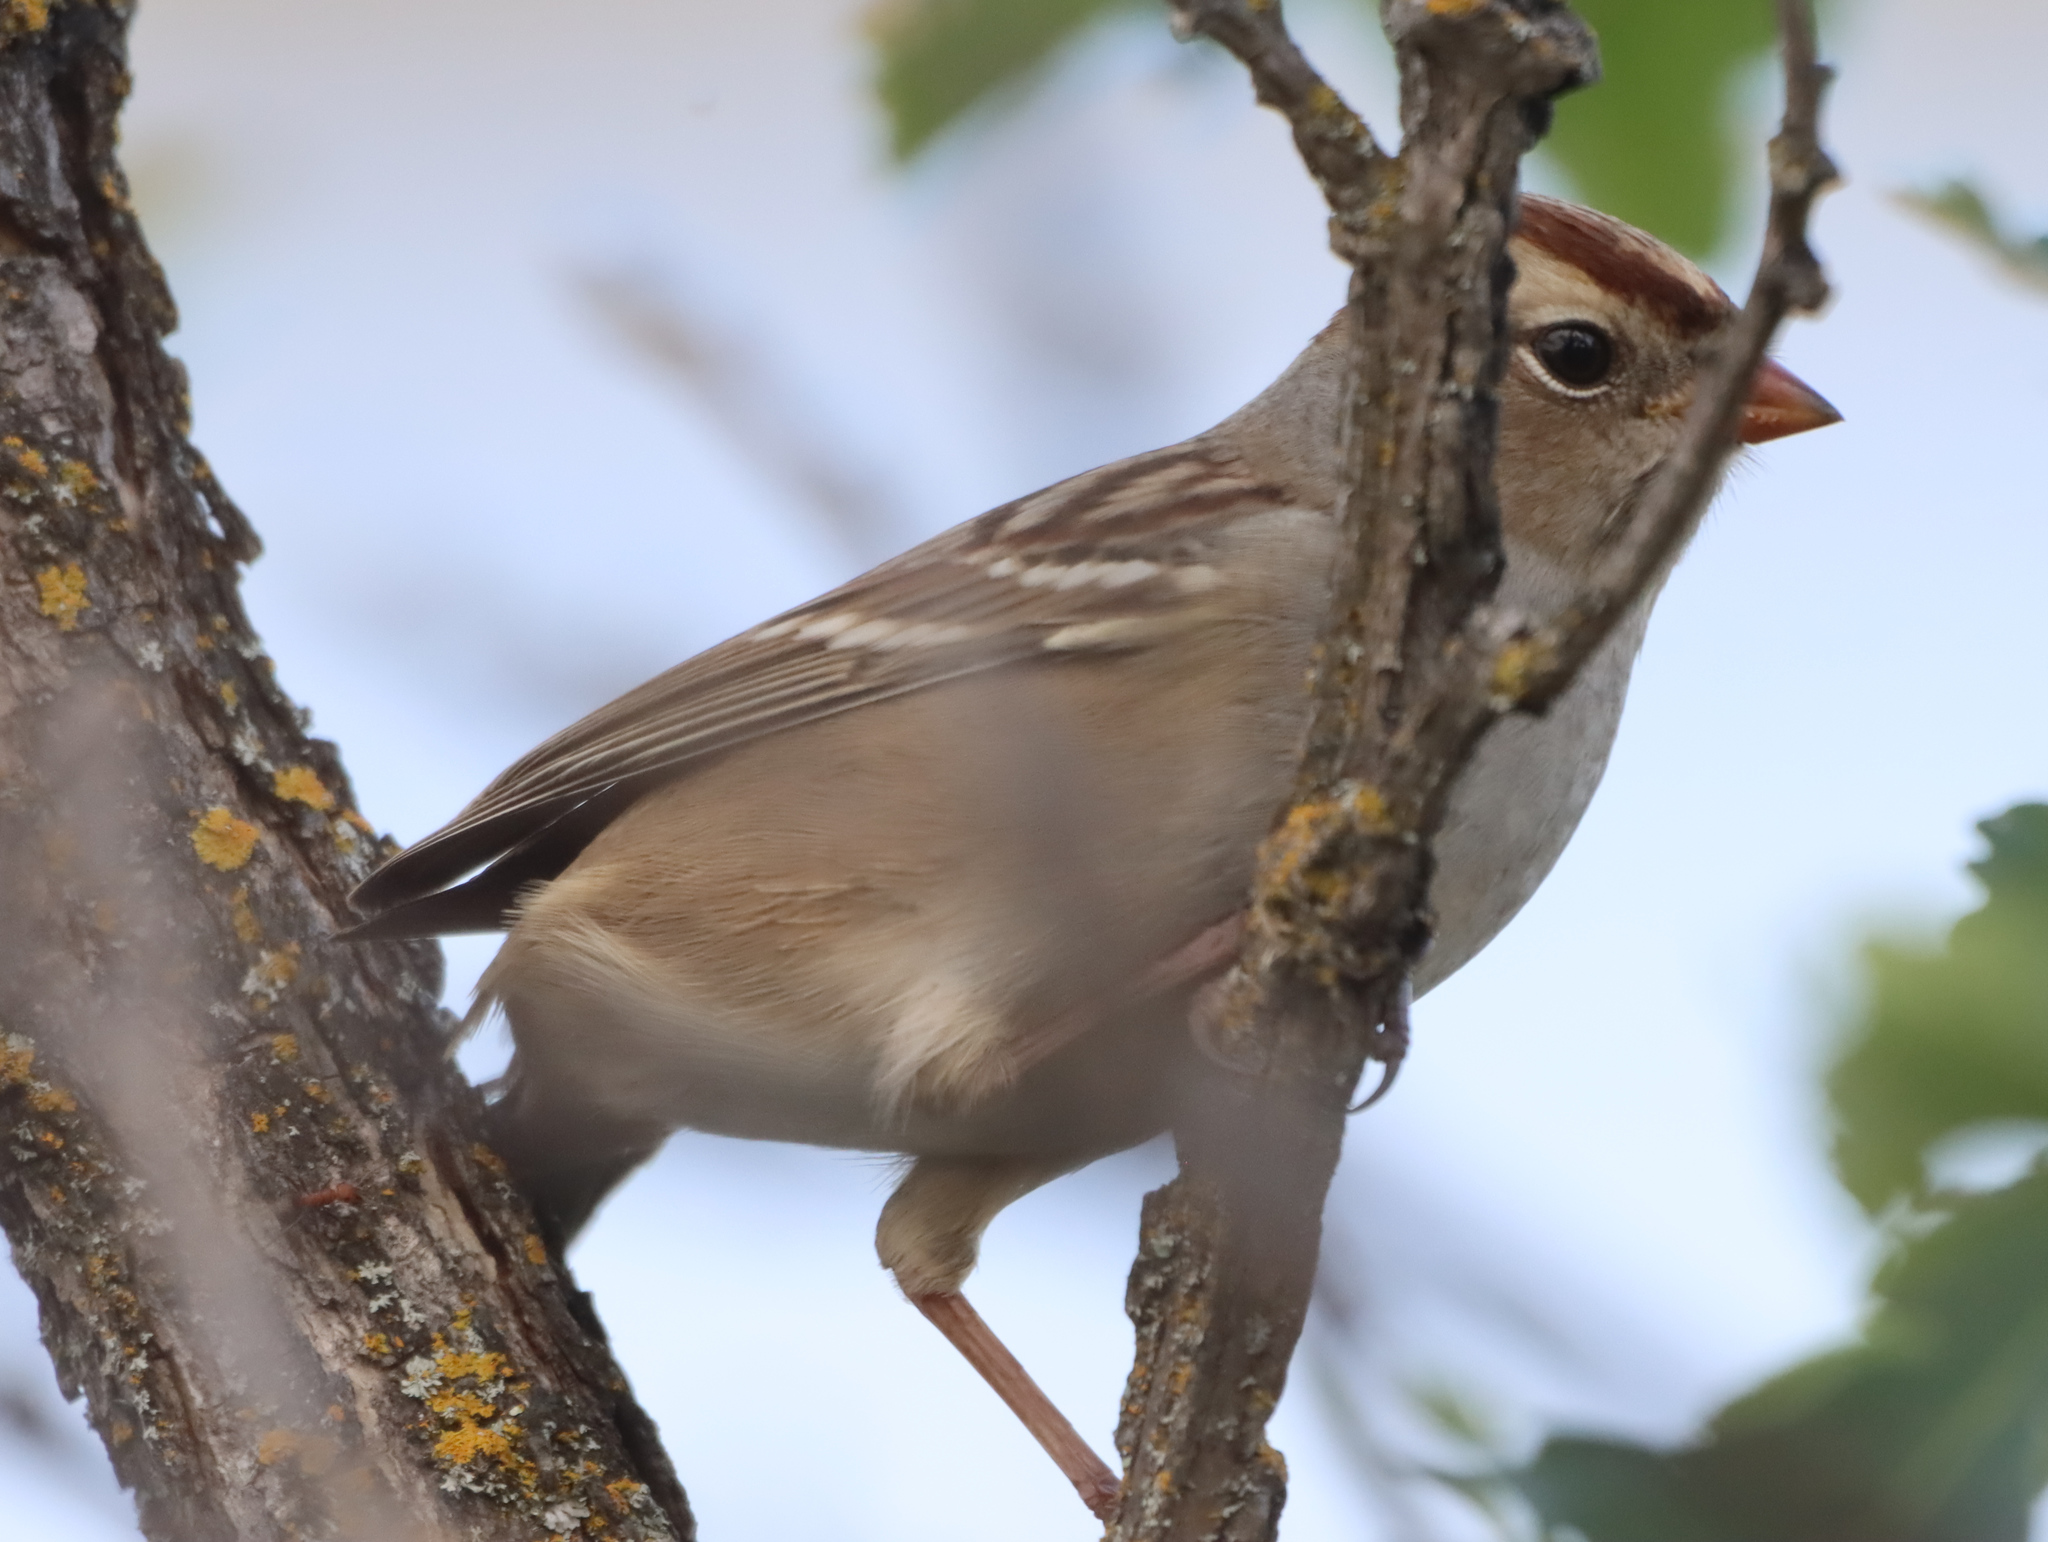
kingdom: Animalia
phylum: Chordata
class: Aves
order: Passeriformes
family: Passerellidae
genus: Zonotrichia
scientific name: Zonotrichia leucophrys
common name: White-crowned sparrow
